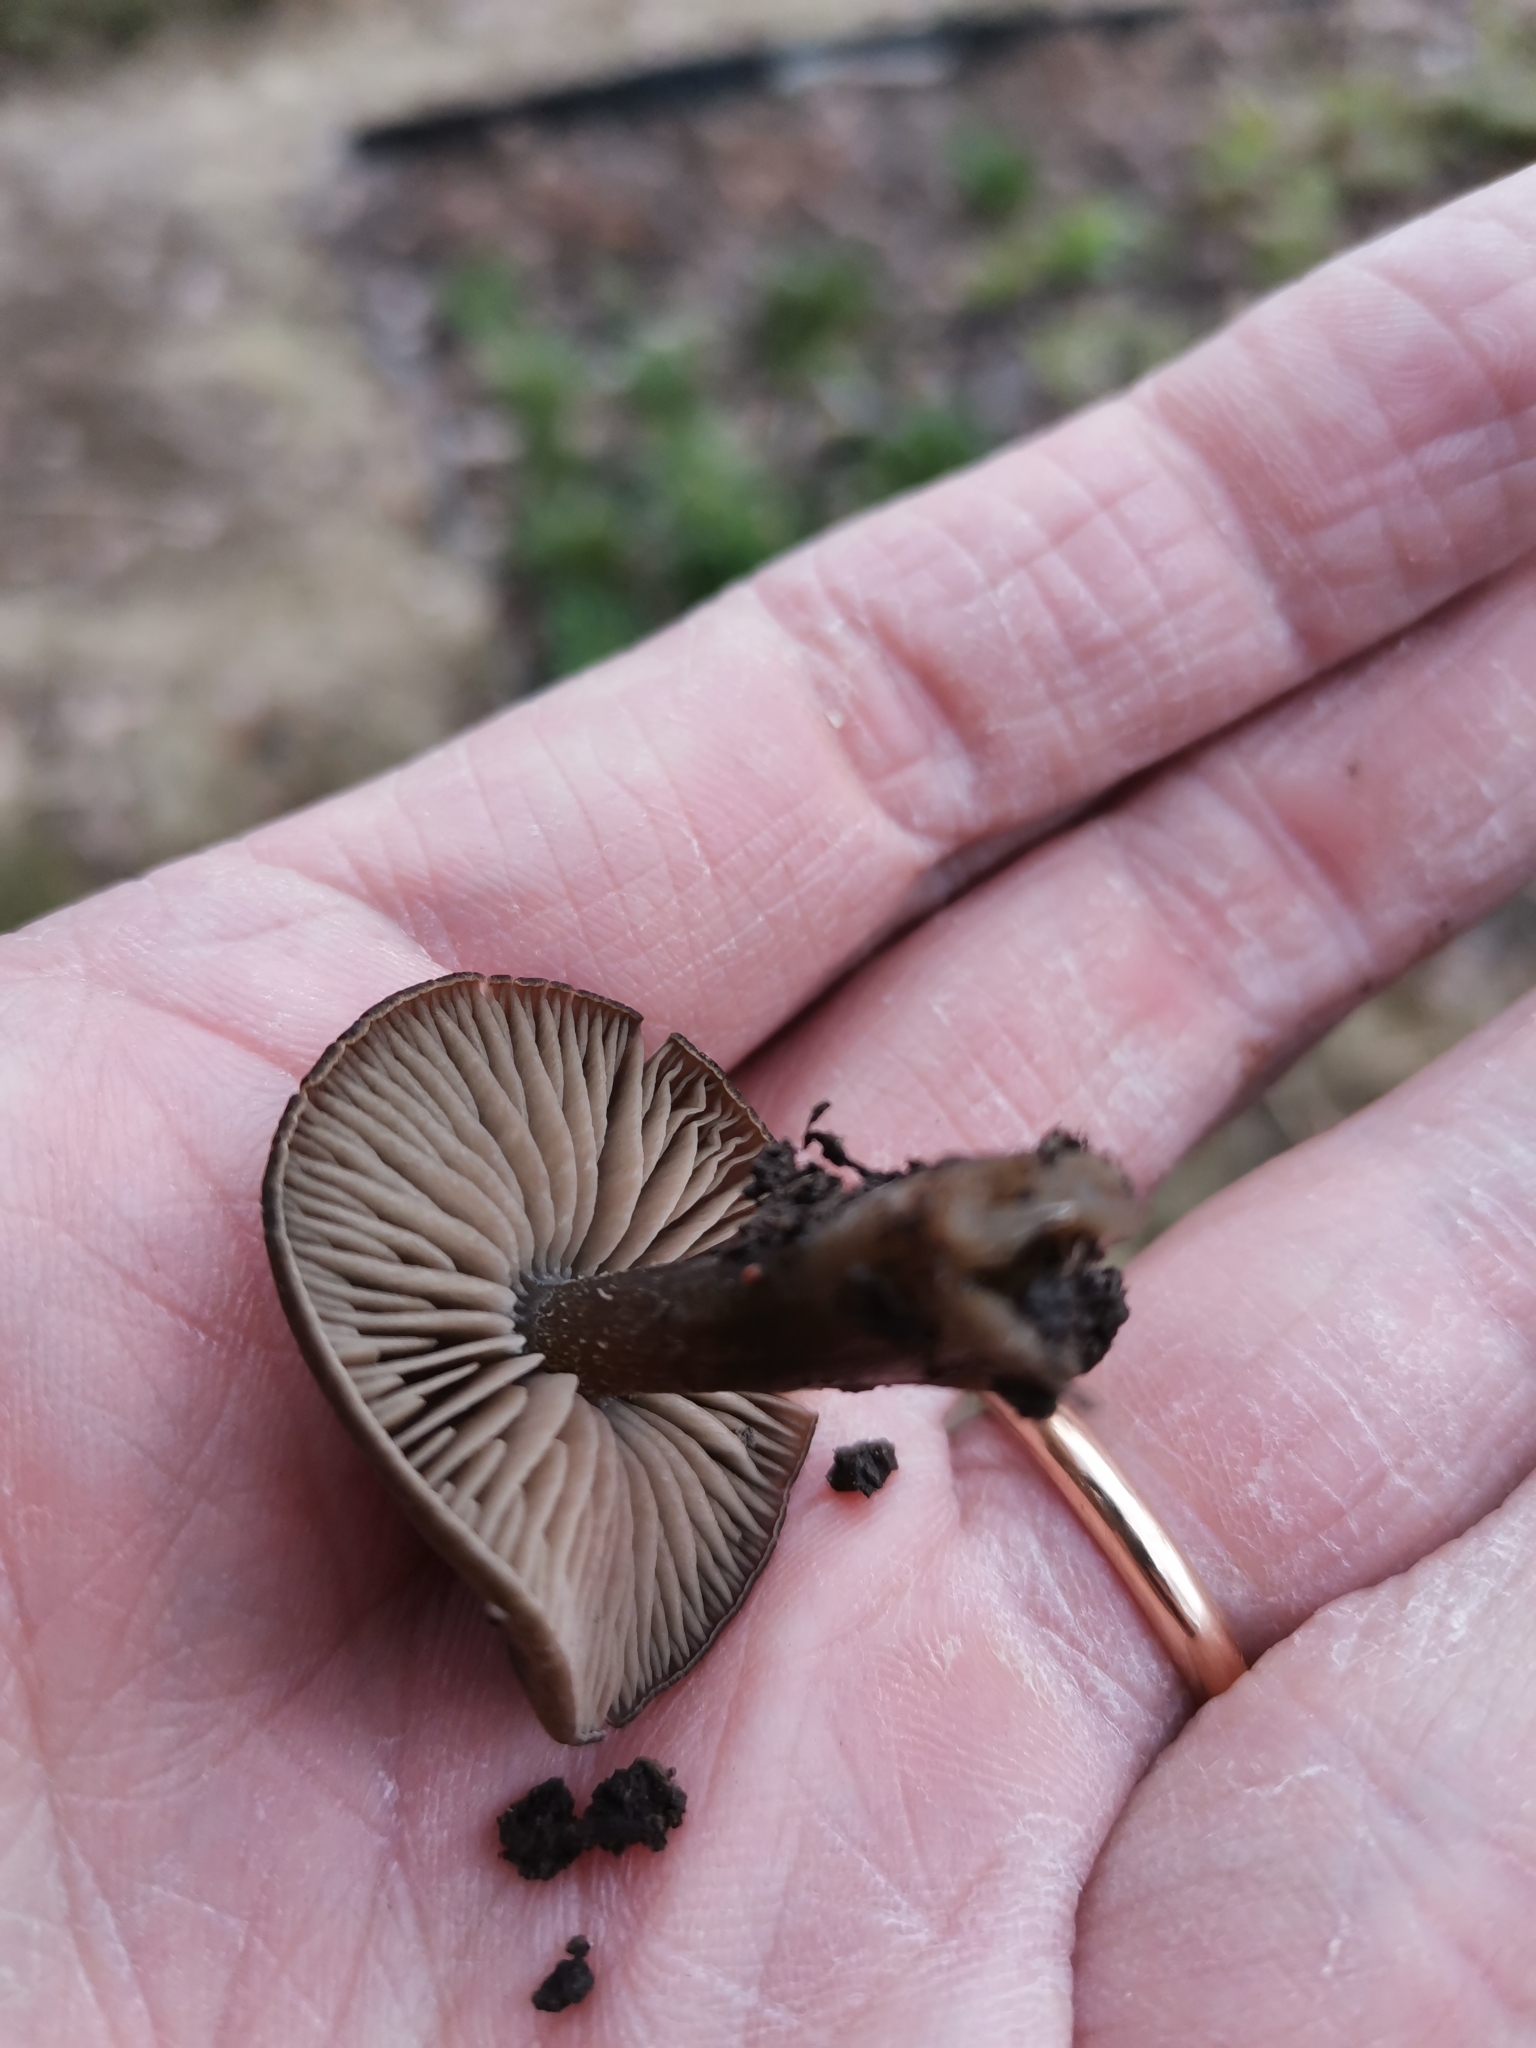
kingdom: Fungi
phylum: Basidiomycota
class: Agaricomycetes
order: Agaricales
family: Entolomataceae
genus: Entoloma
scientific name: Entoloma vernum
